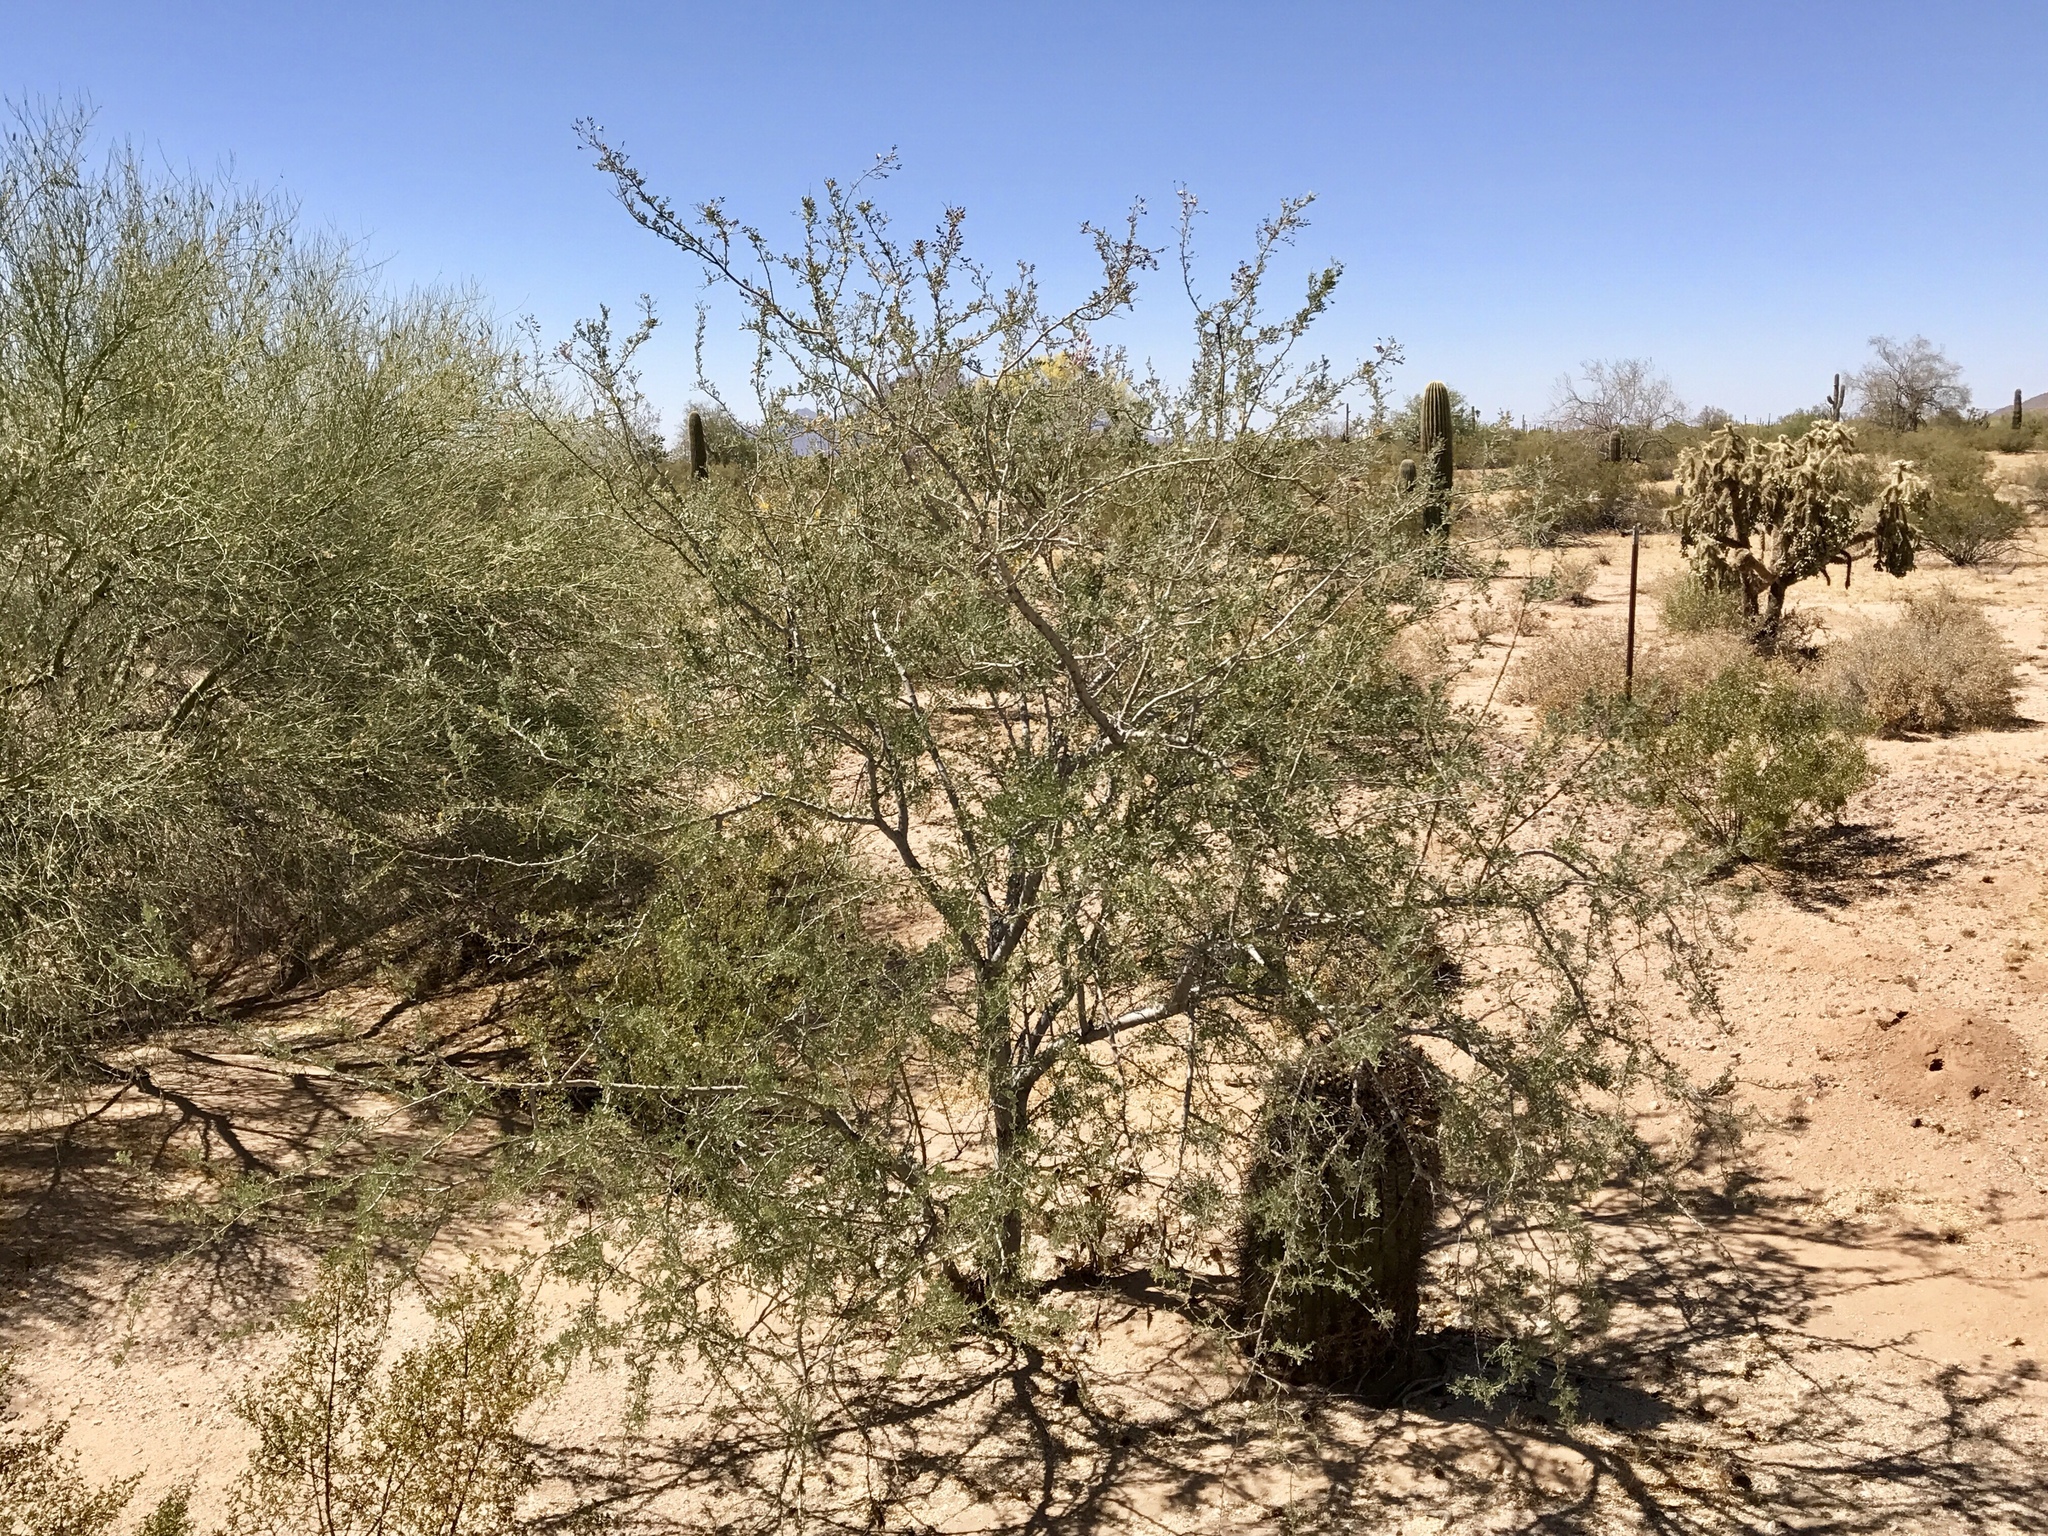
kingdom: Plantae
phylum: Tracheophyta
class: Magnoliopsida
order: Fabales
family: Fabaceae
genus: Senegalia
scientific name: Senegalia greggii
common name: Texas-mimosa
